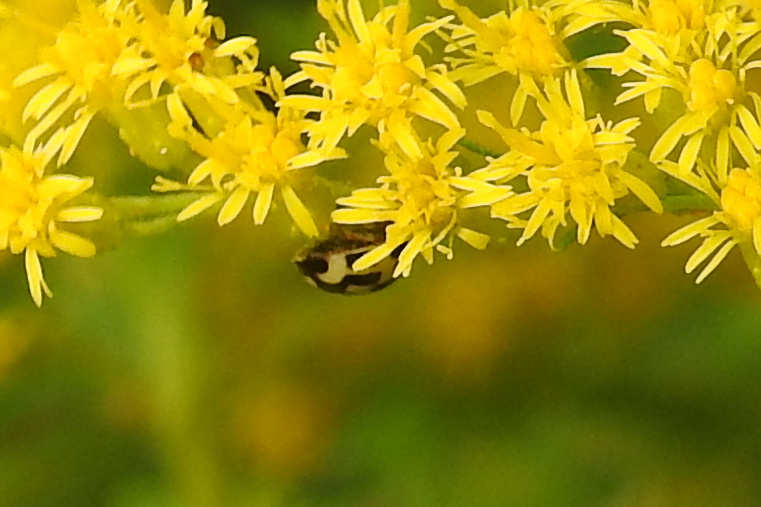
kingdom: Animalia
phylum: Arthropoda
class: Insecta
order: Coleoptera
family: Coccinellidae
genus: Propylaea
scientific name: Propylaea quatuordecimpunctata
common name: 14-spotted ladybird beetle
